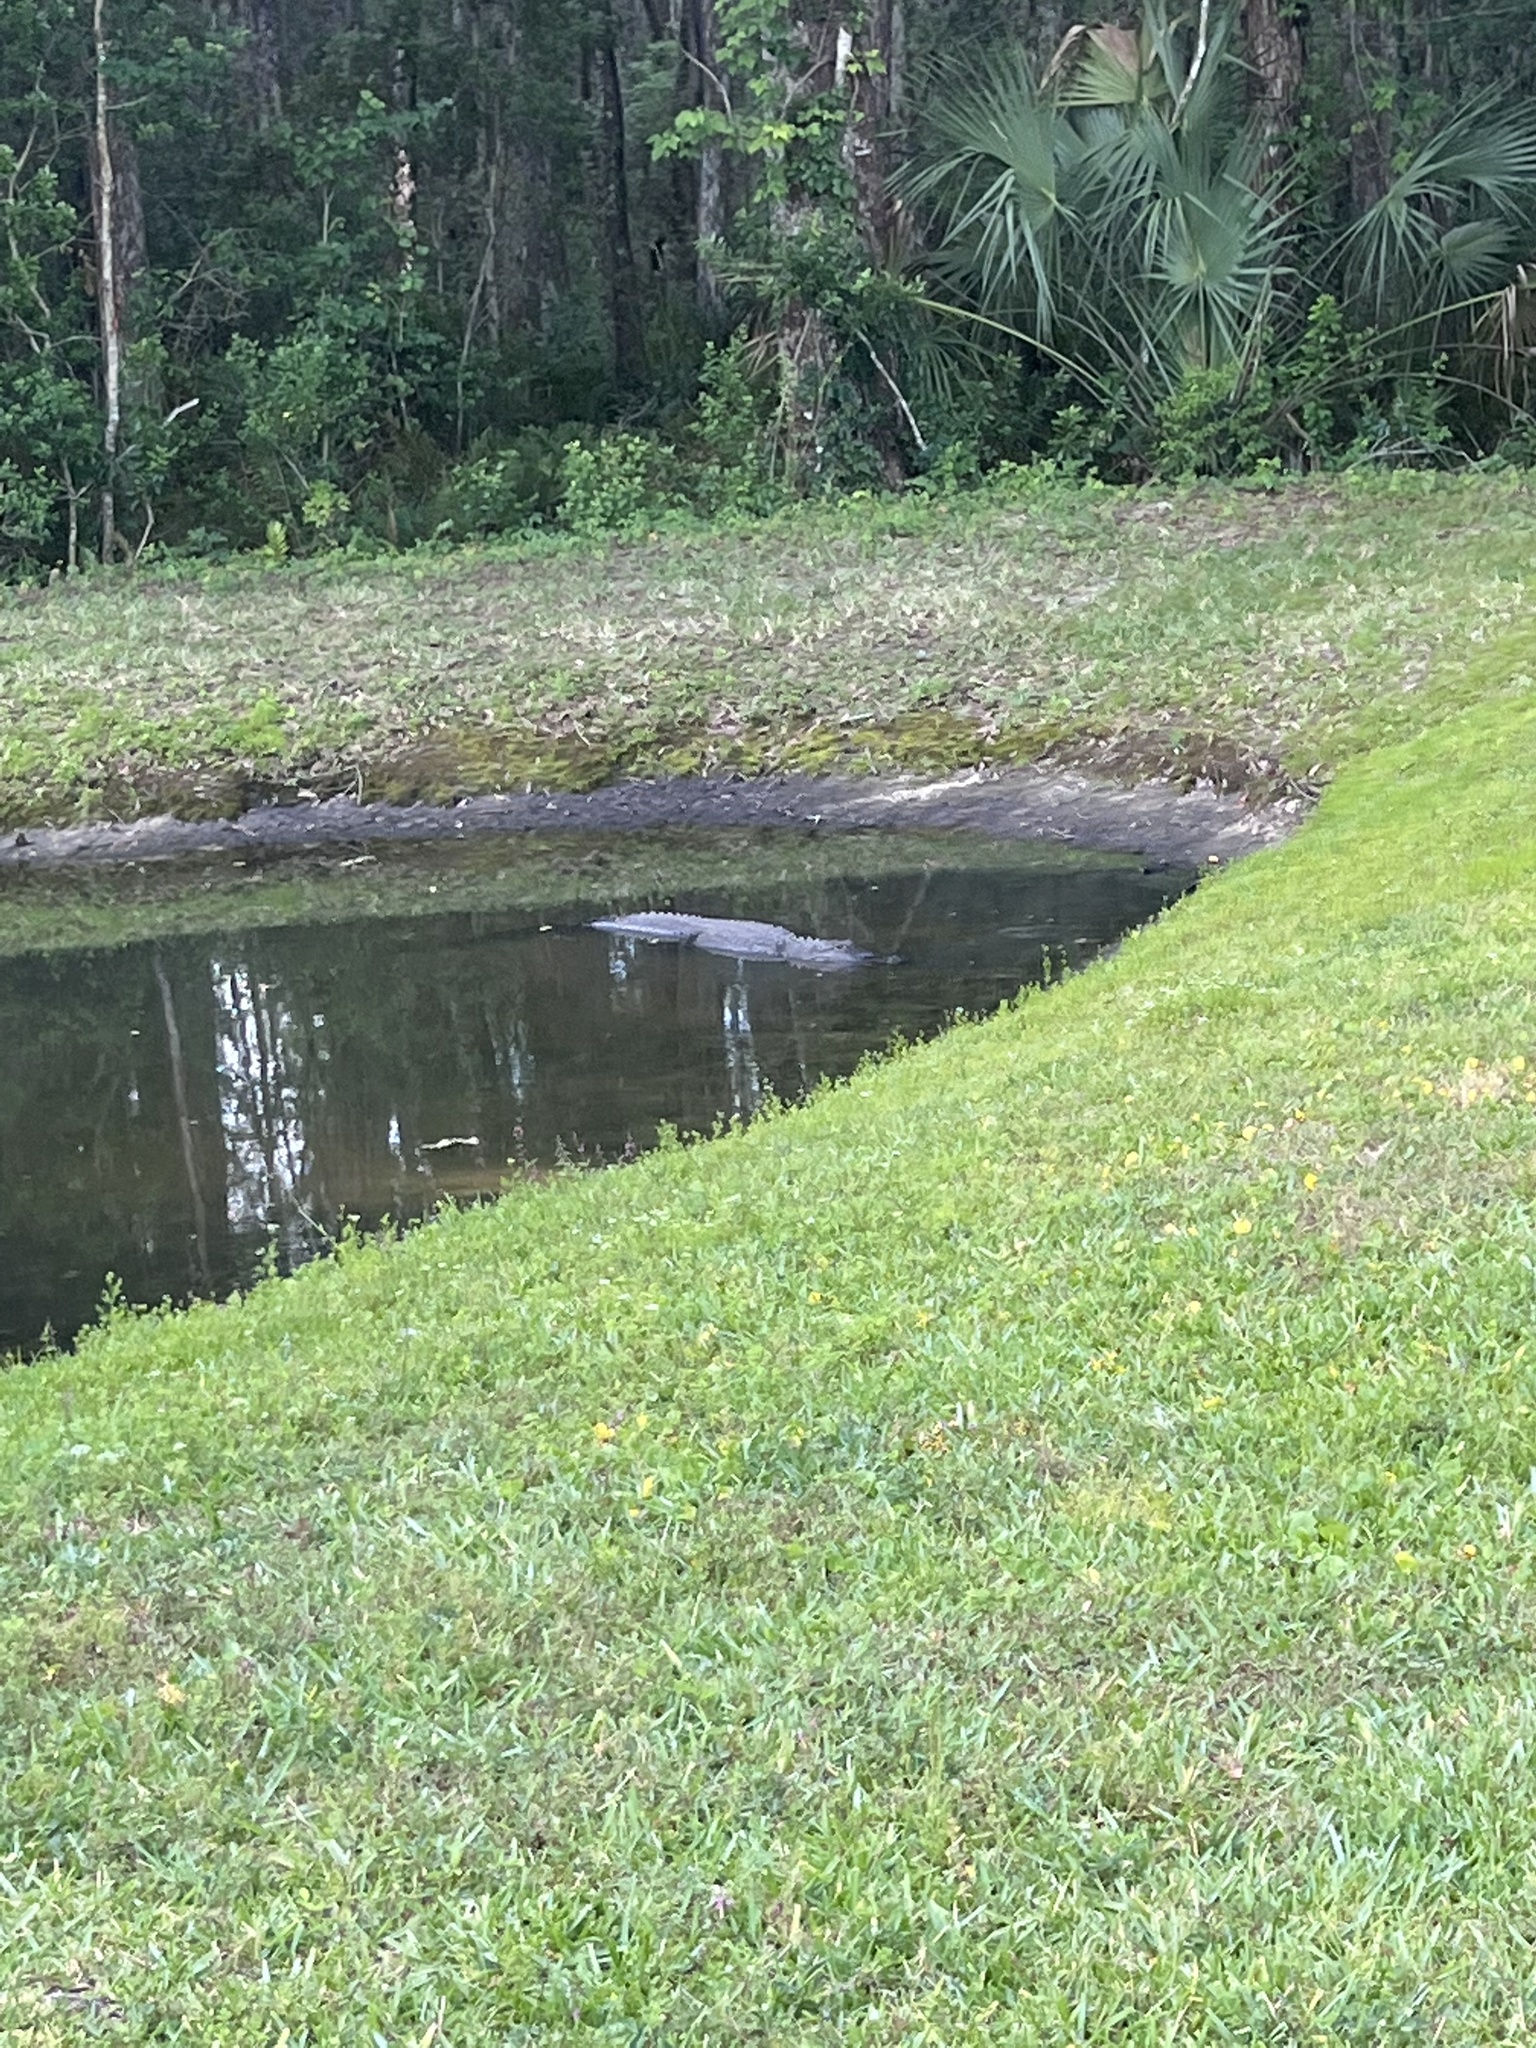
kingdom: Animalia
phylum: Chordata
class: Crocodylia
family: Alligatoridae
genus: Alligator
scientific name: Alligator mississippiensis
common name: American alligator
